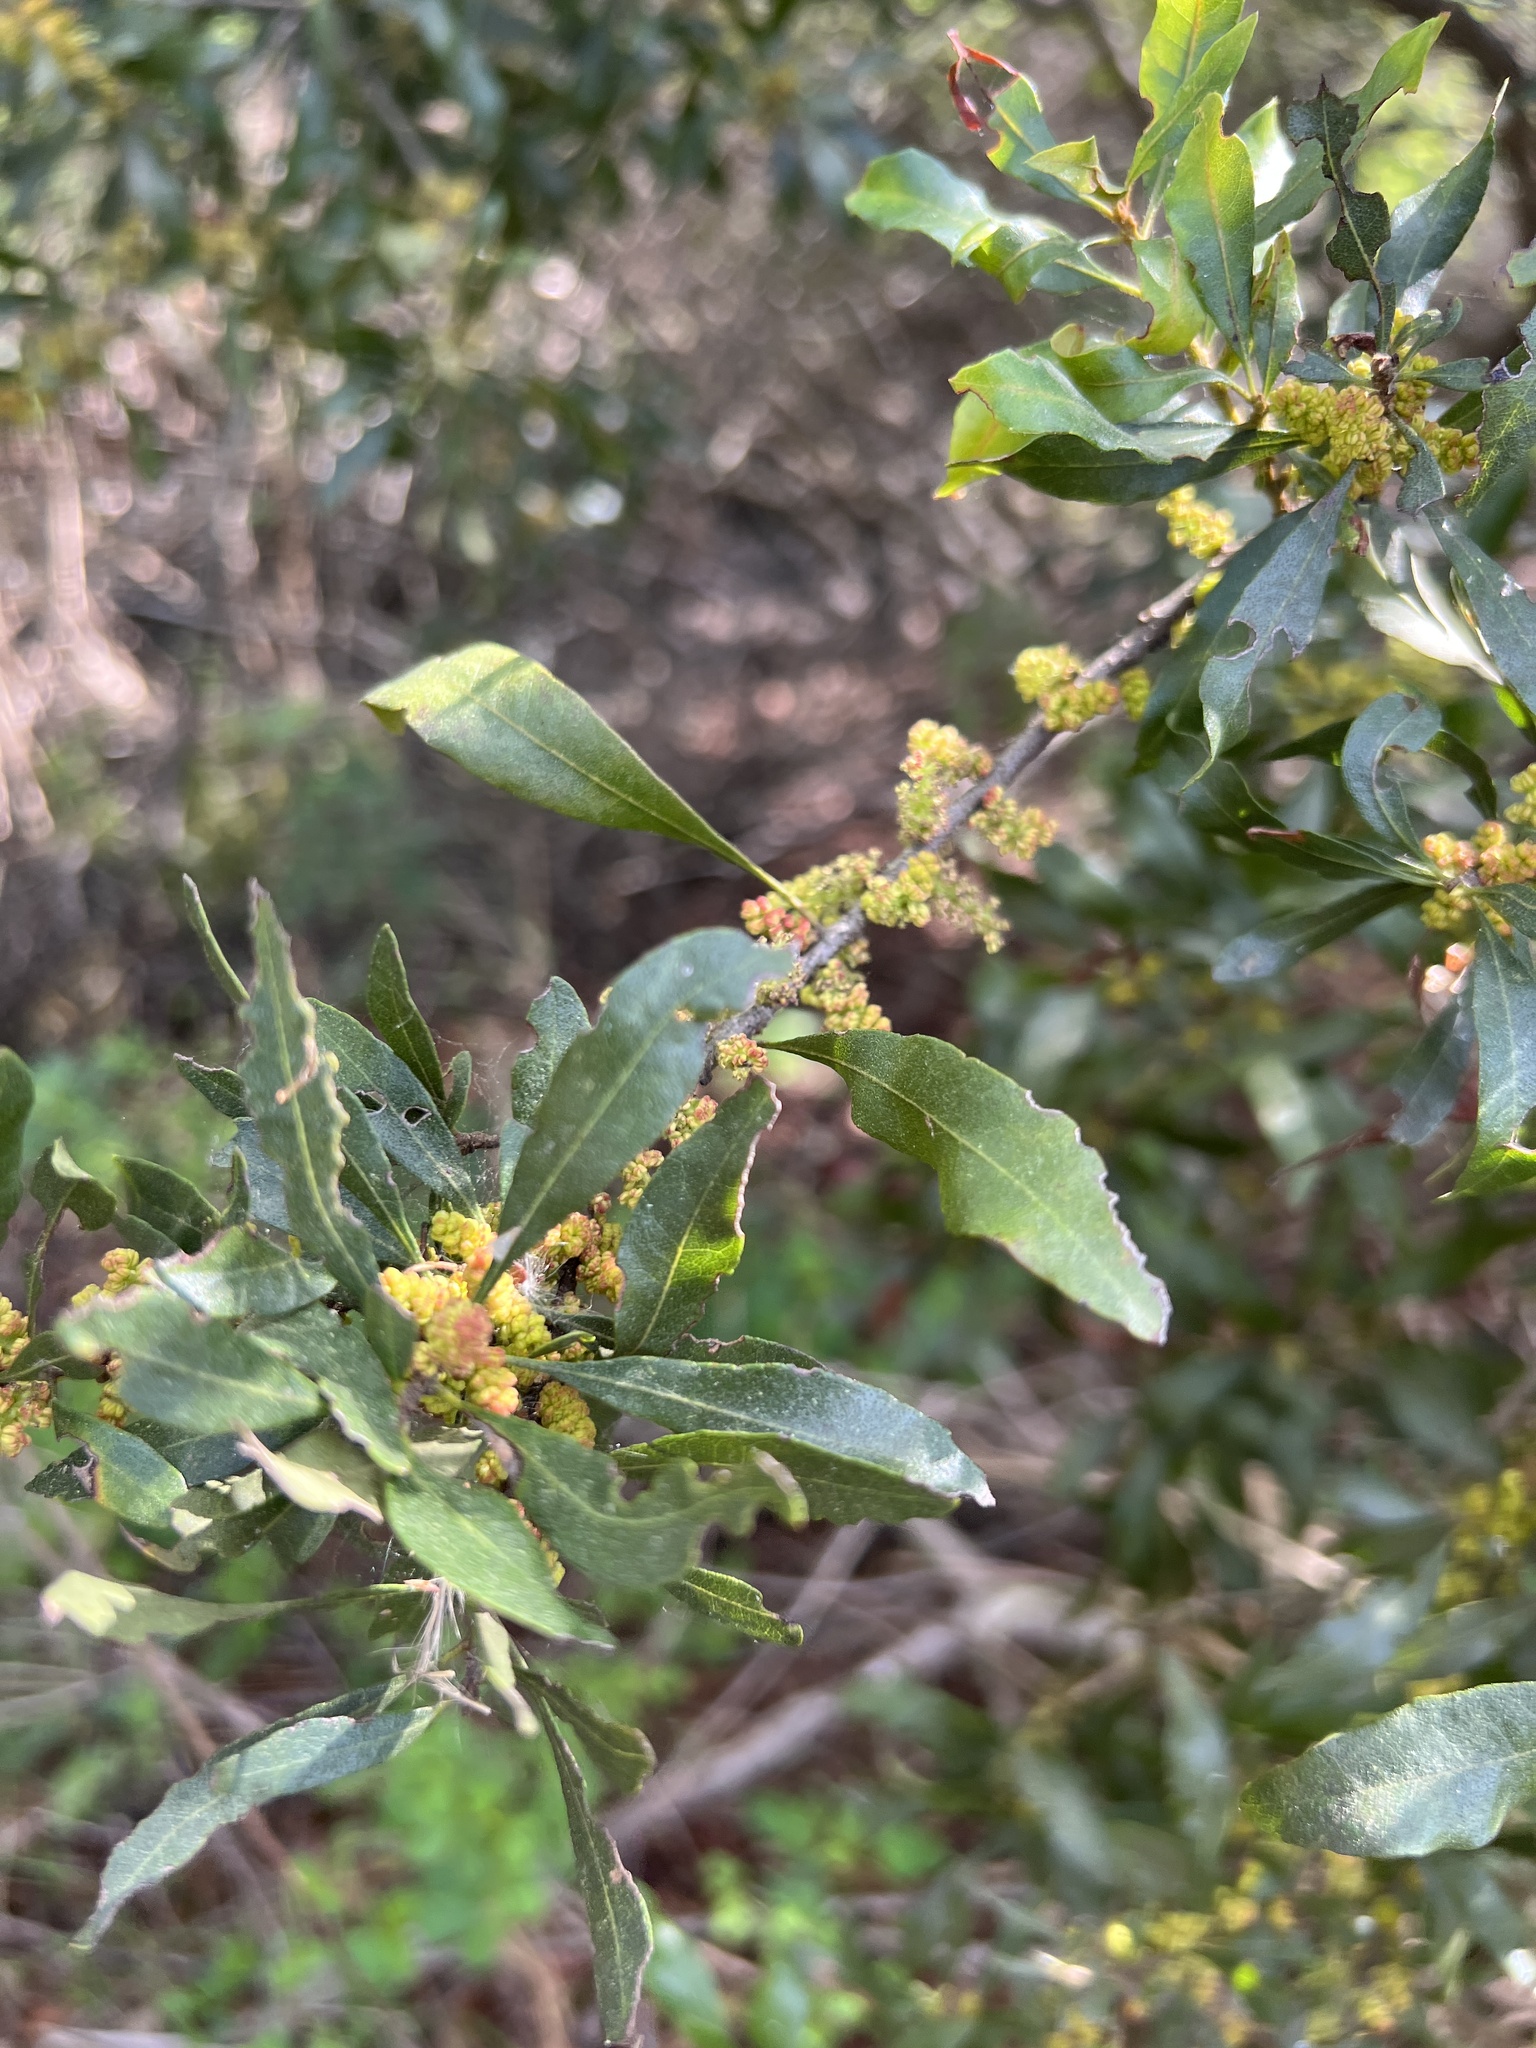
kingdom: Plantae
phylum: Tracheophyta
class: Magnoliopsida
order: Fagales
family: Myricaceae
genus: Morella
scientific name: Morella cerifera
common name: Wax myrtle
